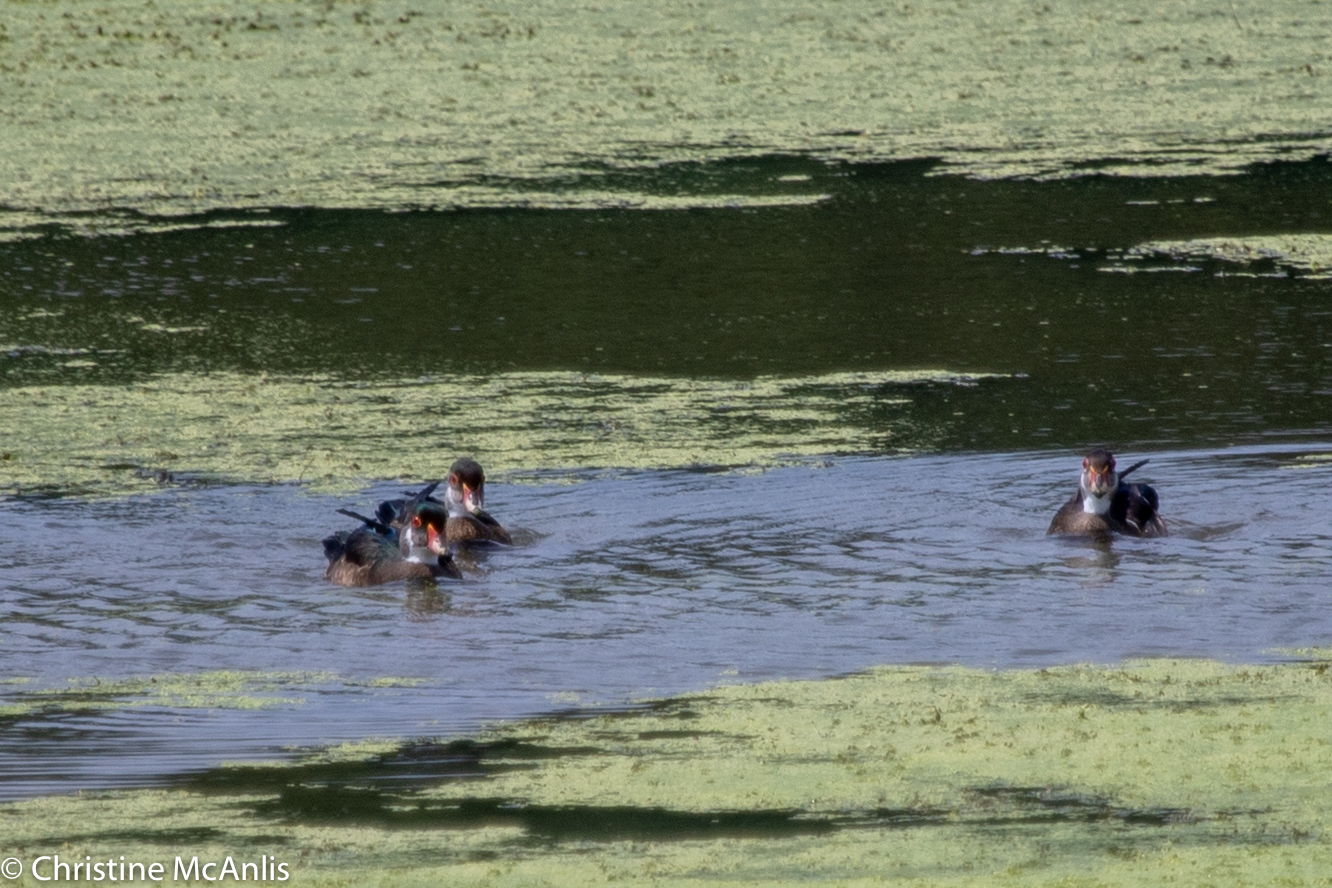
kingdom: Animalia
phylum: Chordata
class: Aves
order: Anseriformes
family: Anatidae
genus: Aix
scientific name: Aix sponsa
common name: Wood duck
